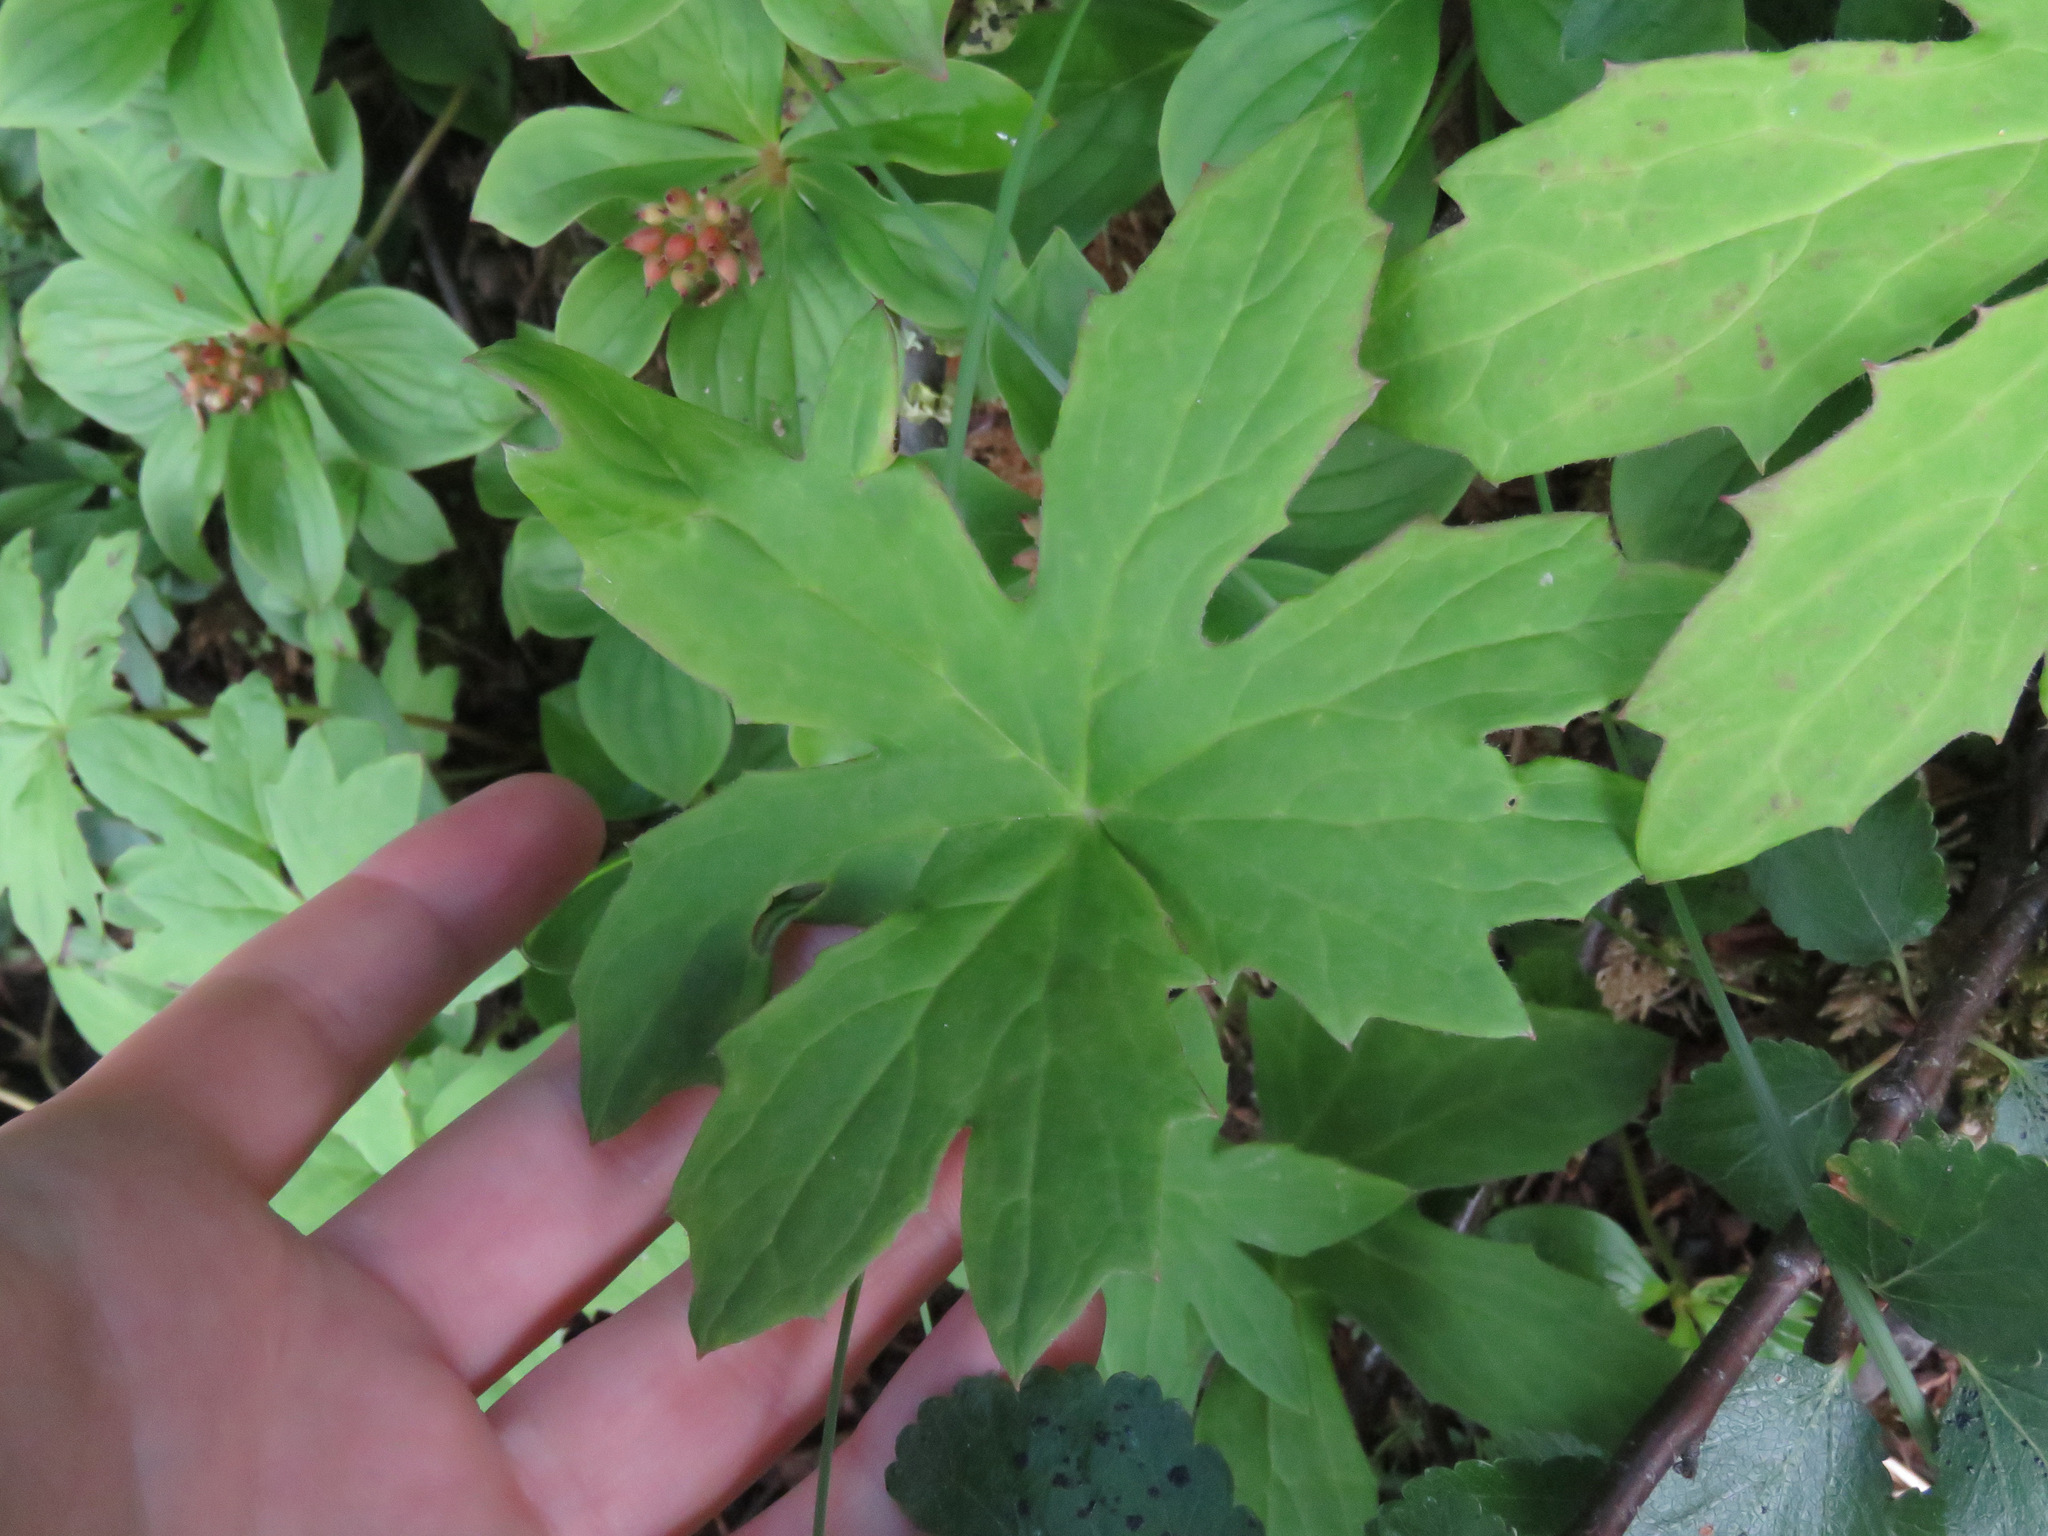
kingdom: Plantae
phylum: Tracheophyta
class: Magnoliopsida
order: Asterales
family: Asteraceae
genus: Petasites
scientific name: Petasites frigidus
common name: Arctic butterbur
